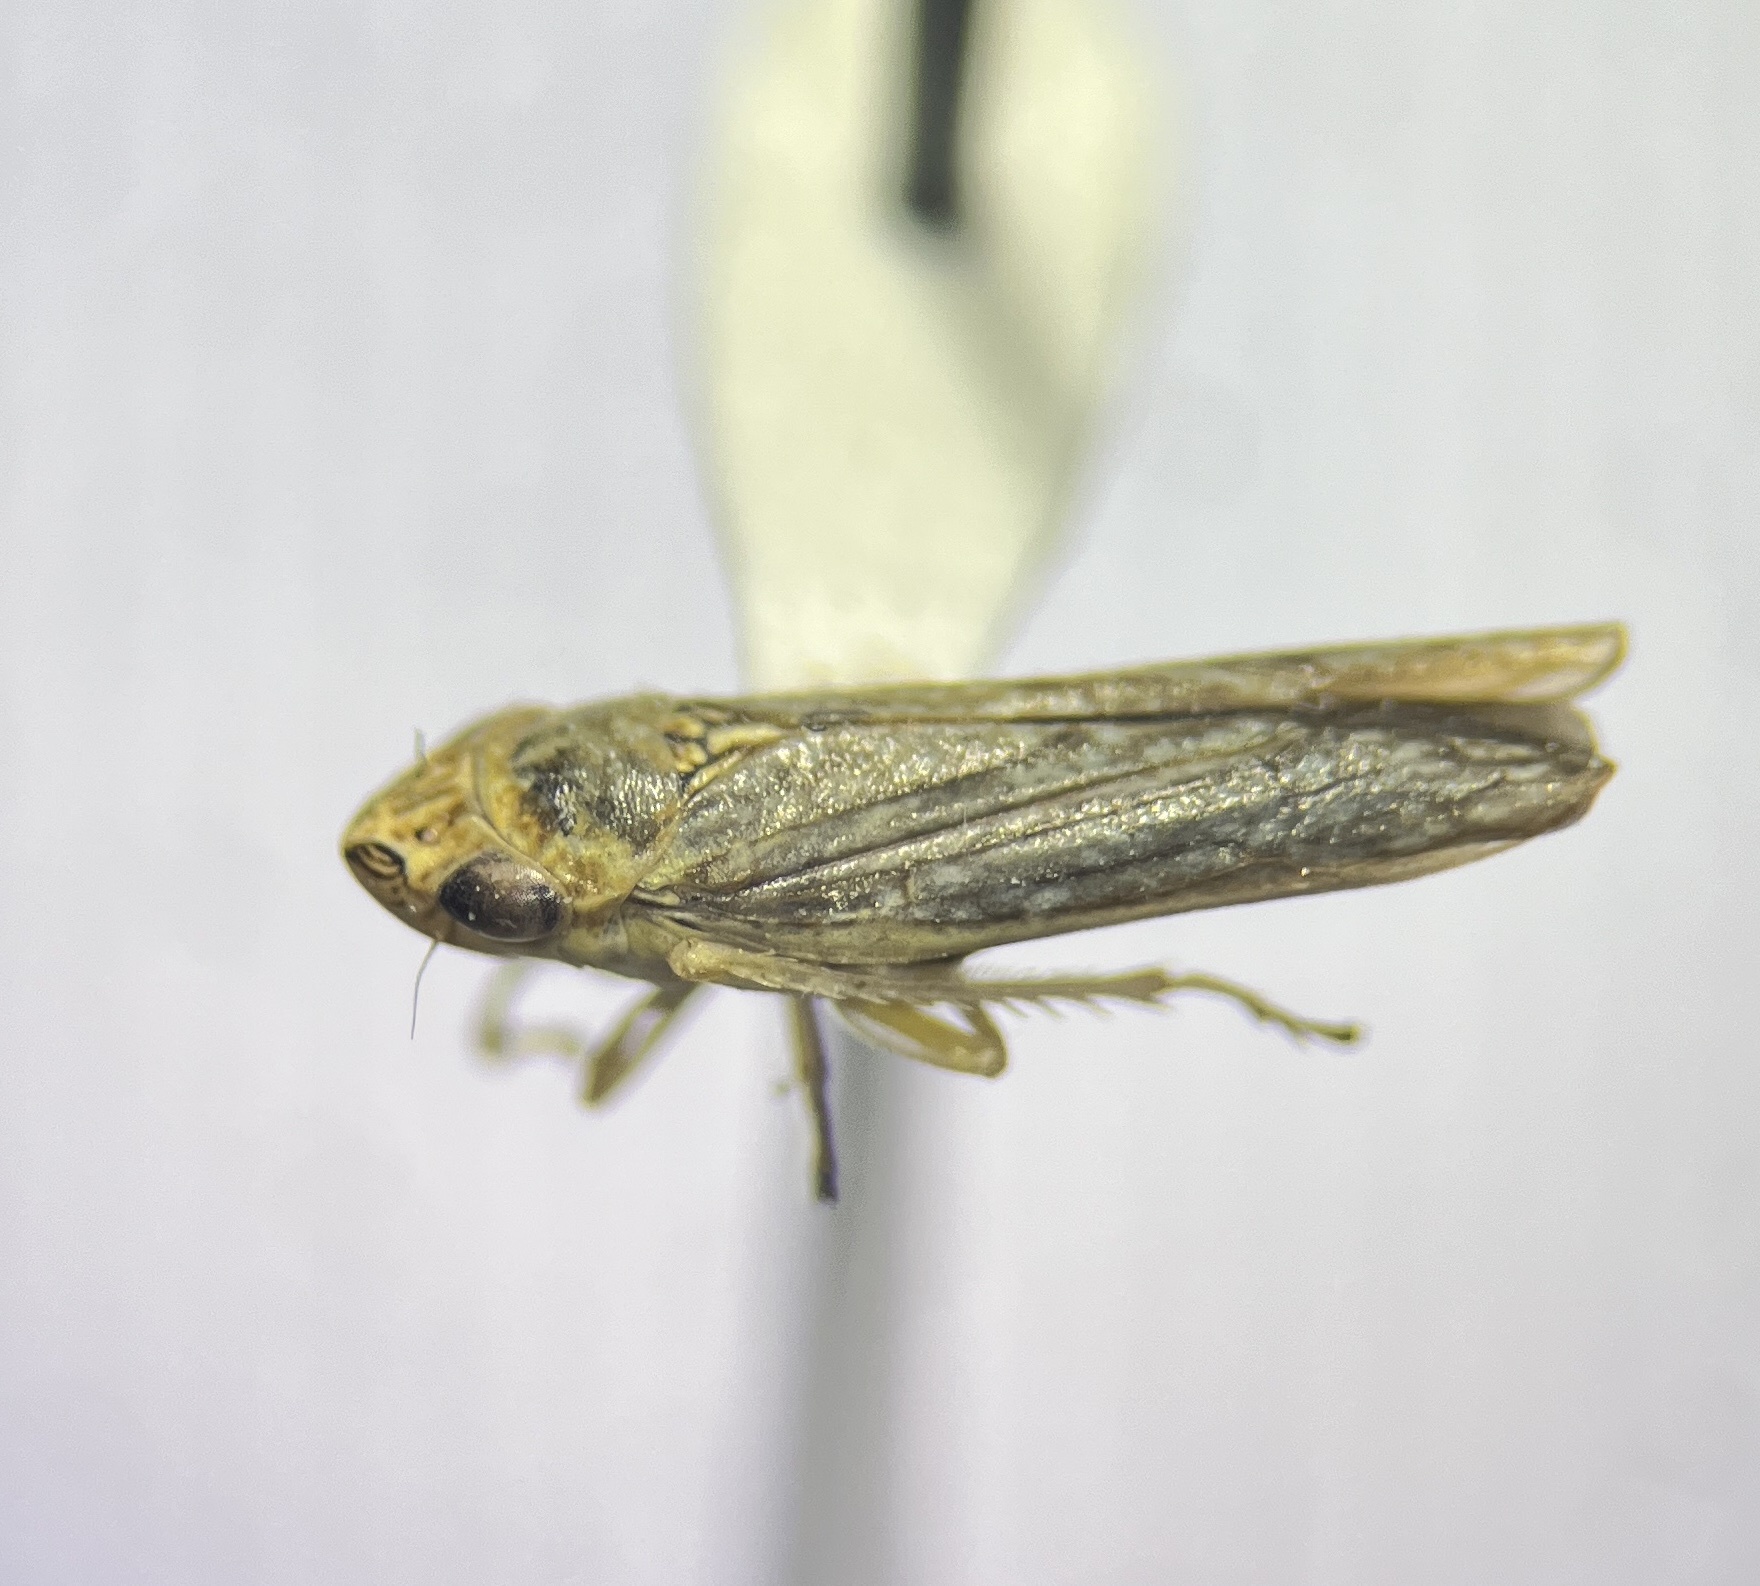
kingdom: Animalia
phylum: Arthropoda
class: Insecta
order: Hemiptera
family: Cicadellidae
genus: Graphocephala
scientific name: Graphocephala confluens
